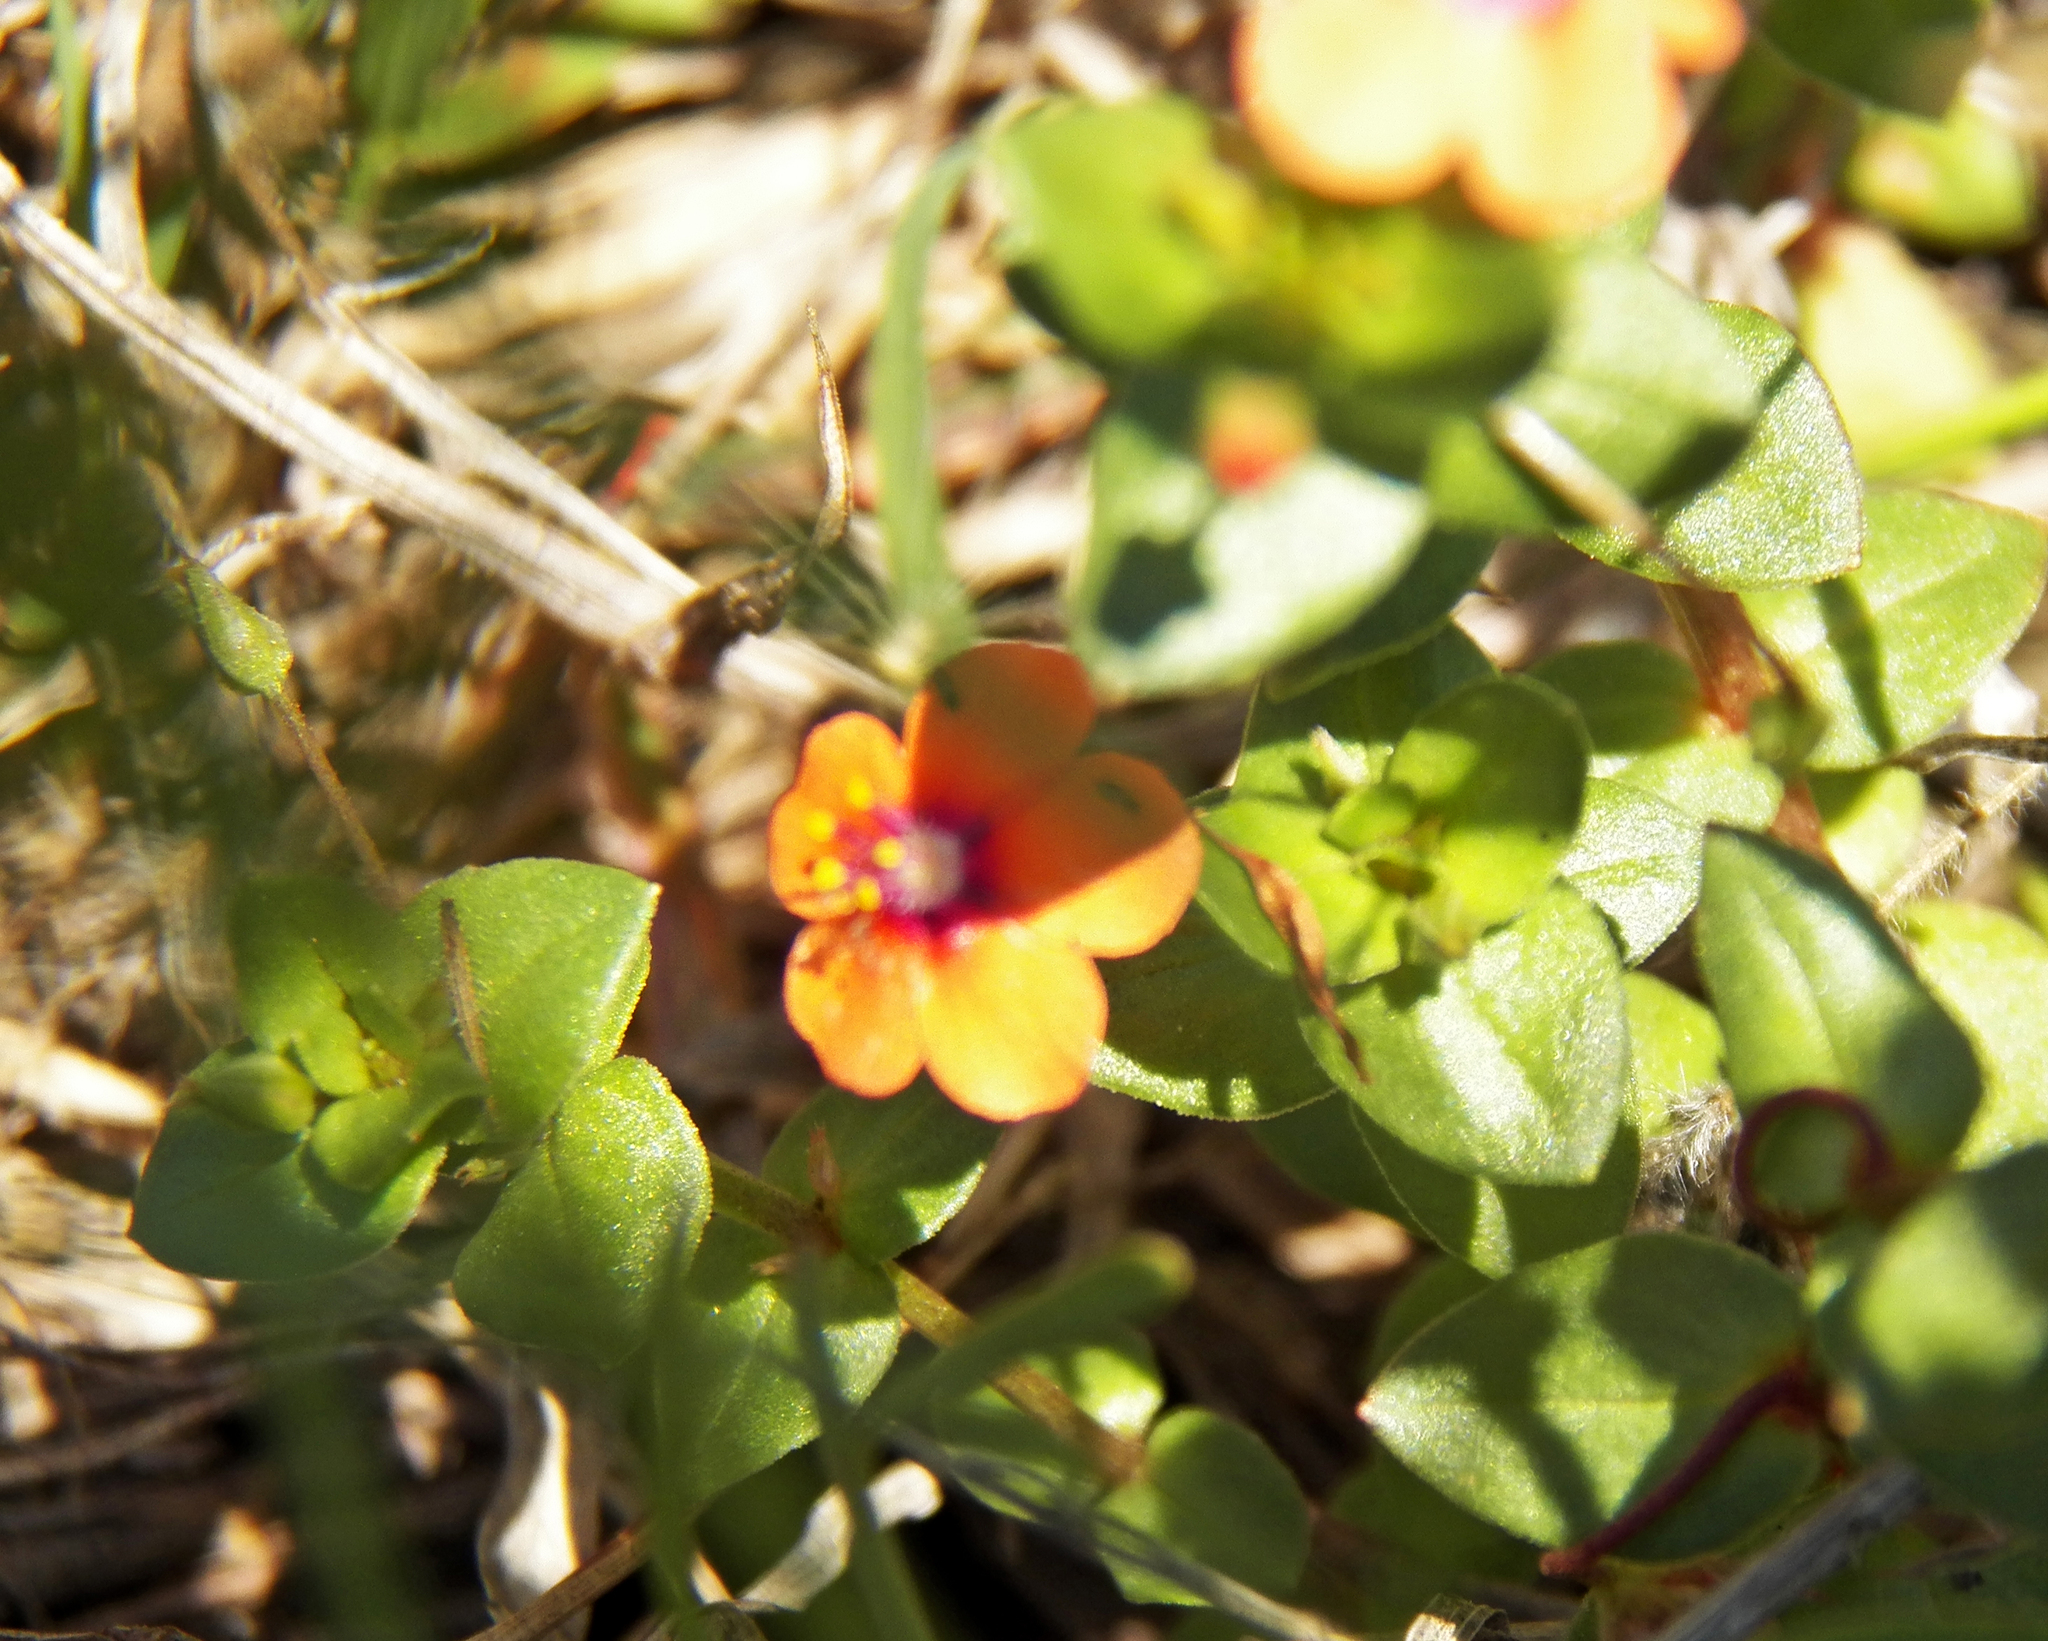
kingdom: Plantae
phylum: Tracheophyta
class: Magnoliopsida
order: Ericales
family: Primulaceae
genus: Lysimachia
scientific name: Lysimachia arvensis
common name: Scarlet pimpernel
